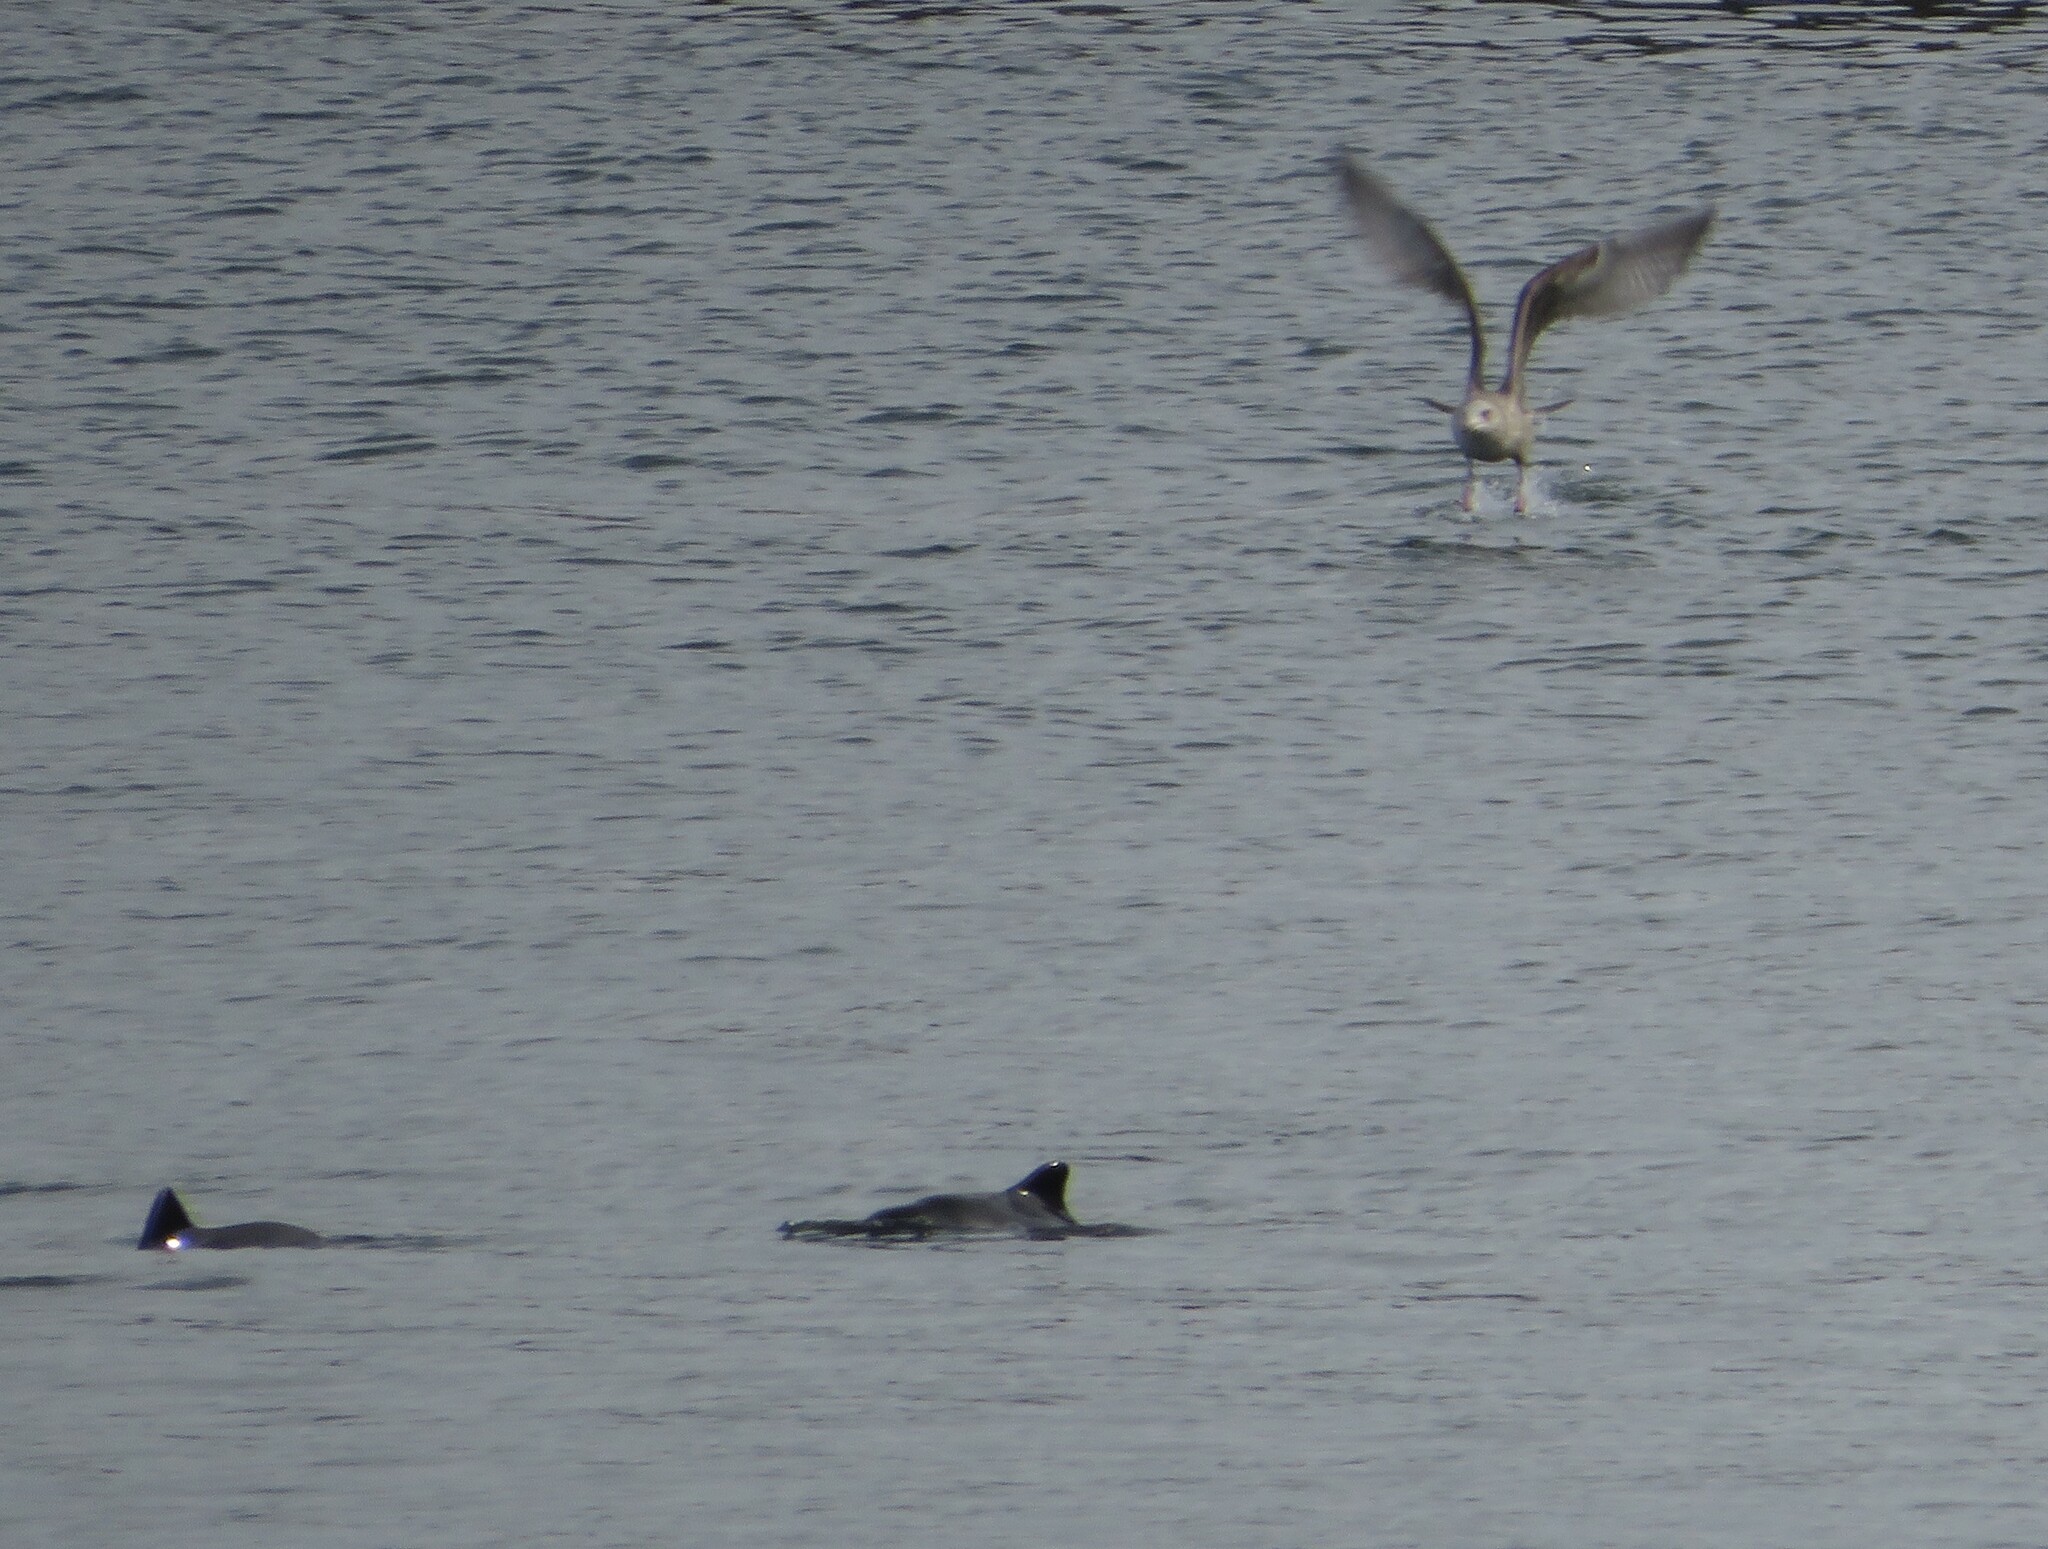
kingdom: Animalia
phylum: Chordata
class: Mammalia
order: Cetacea
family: Phocoenidae
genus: Phocoena
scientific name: Phocoena phocoena
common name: Harbor porpoise
